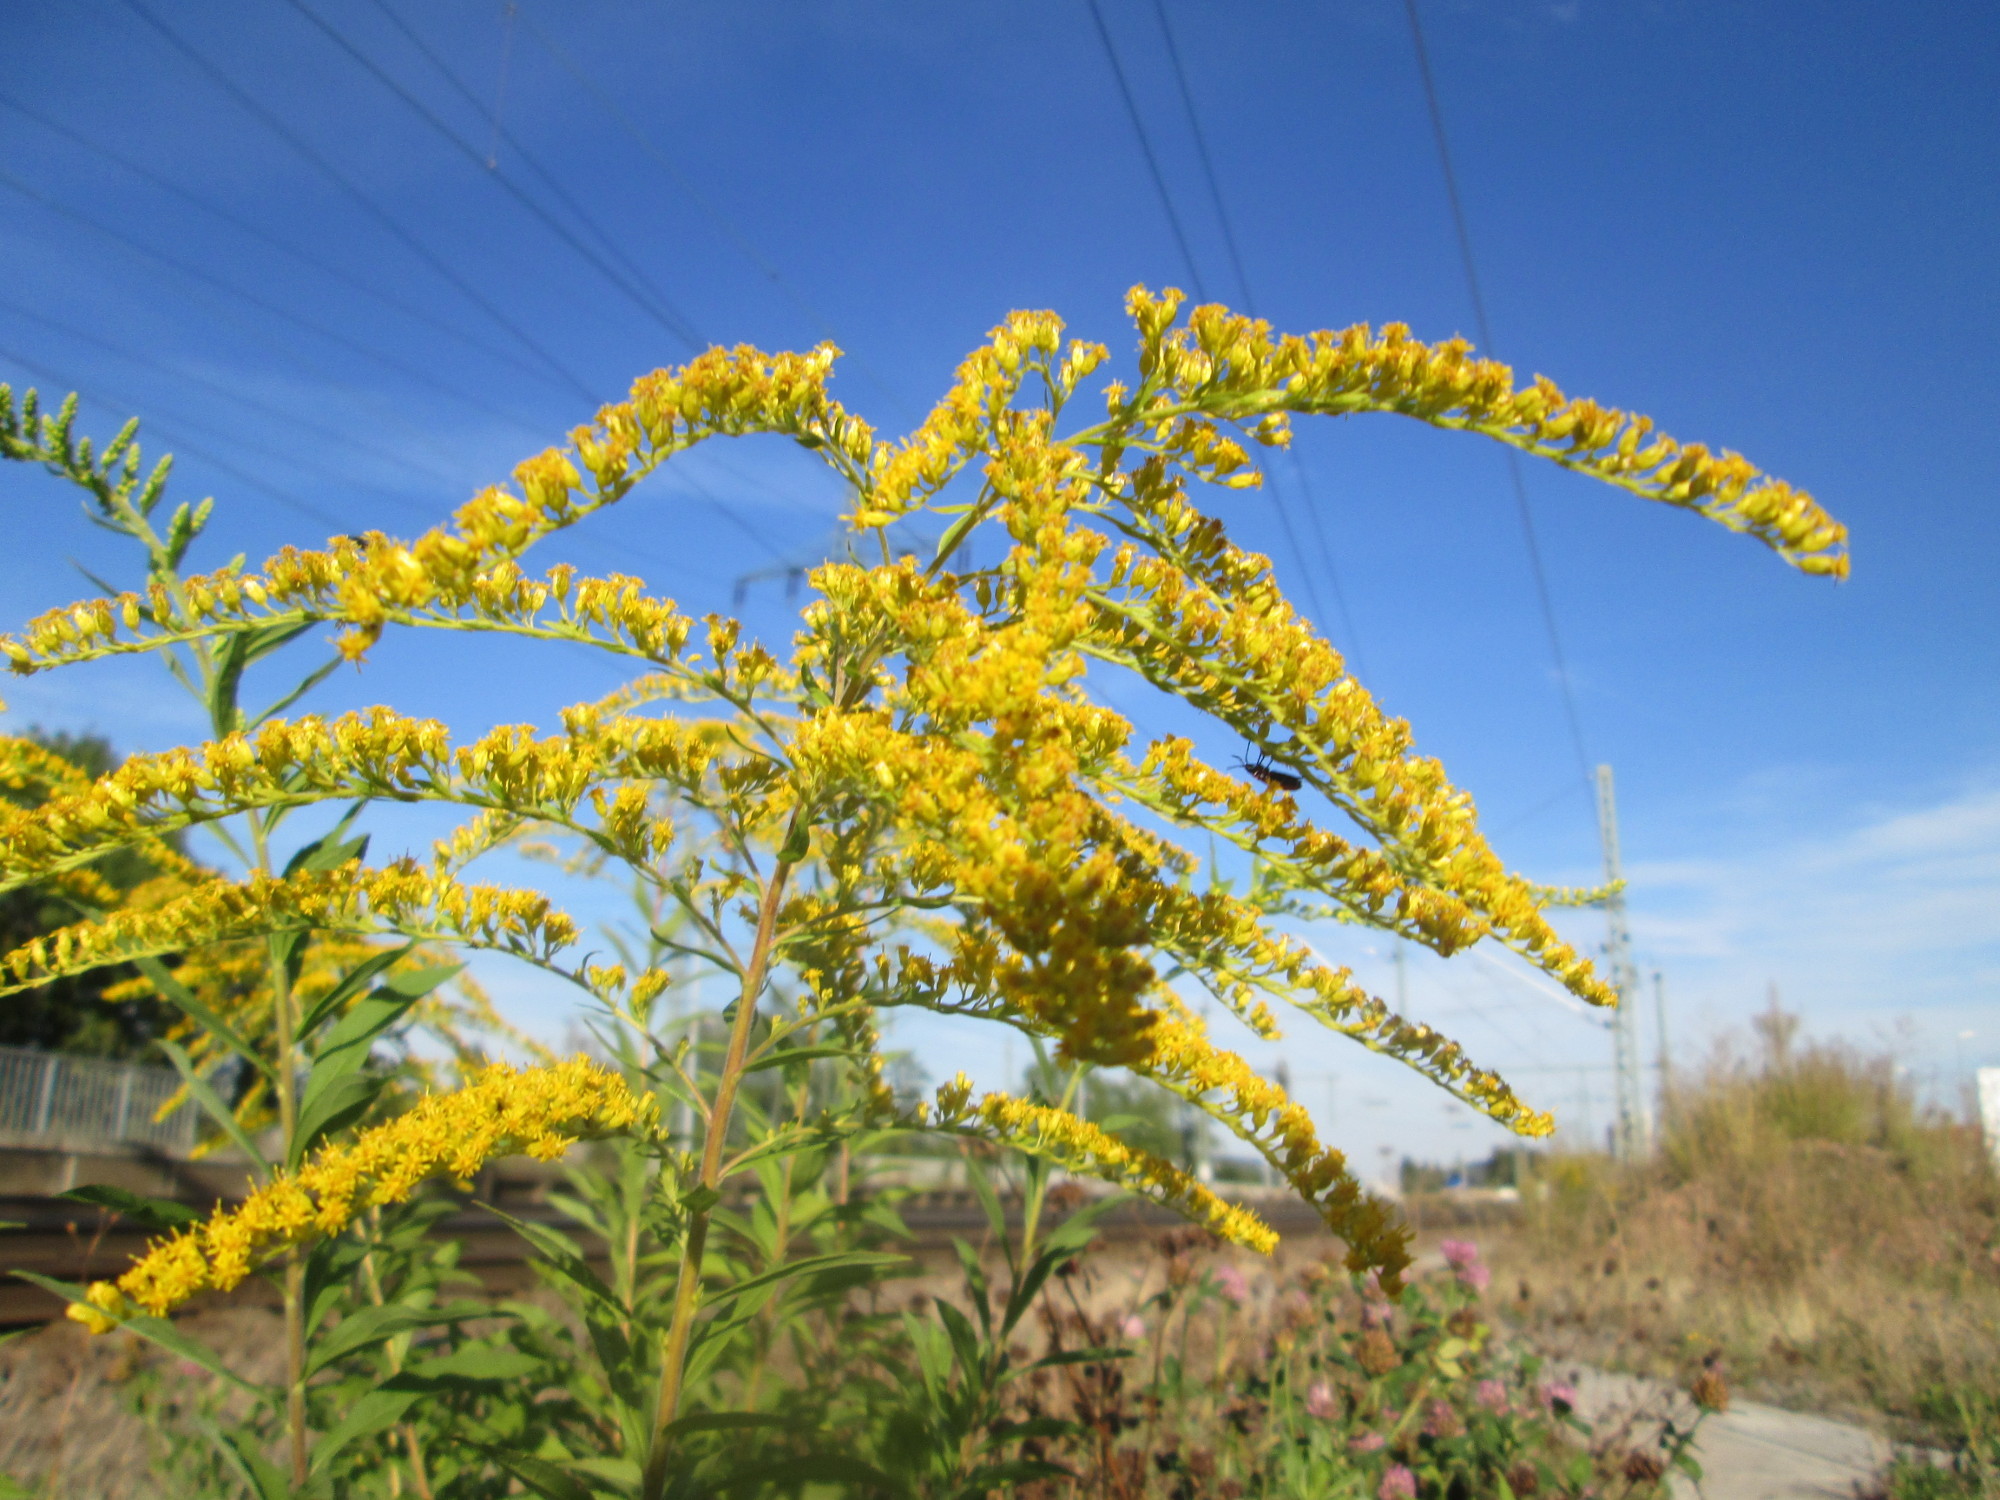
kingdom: Plantae
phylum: Tracheophyta
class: Magnoliopsida
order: Asterales
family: Asteraceae
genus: Solidago
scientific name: Solidago canadensis
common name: Canada goldenrod
